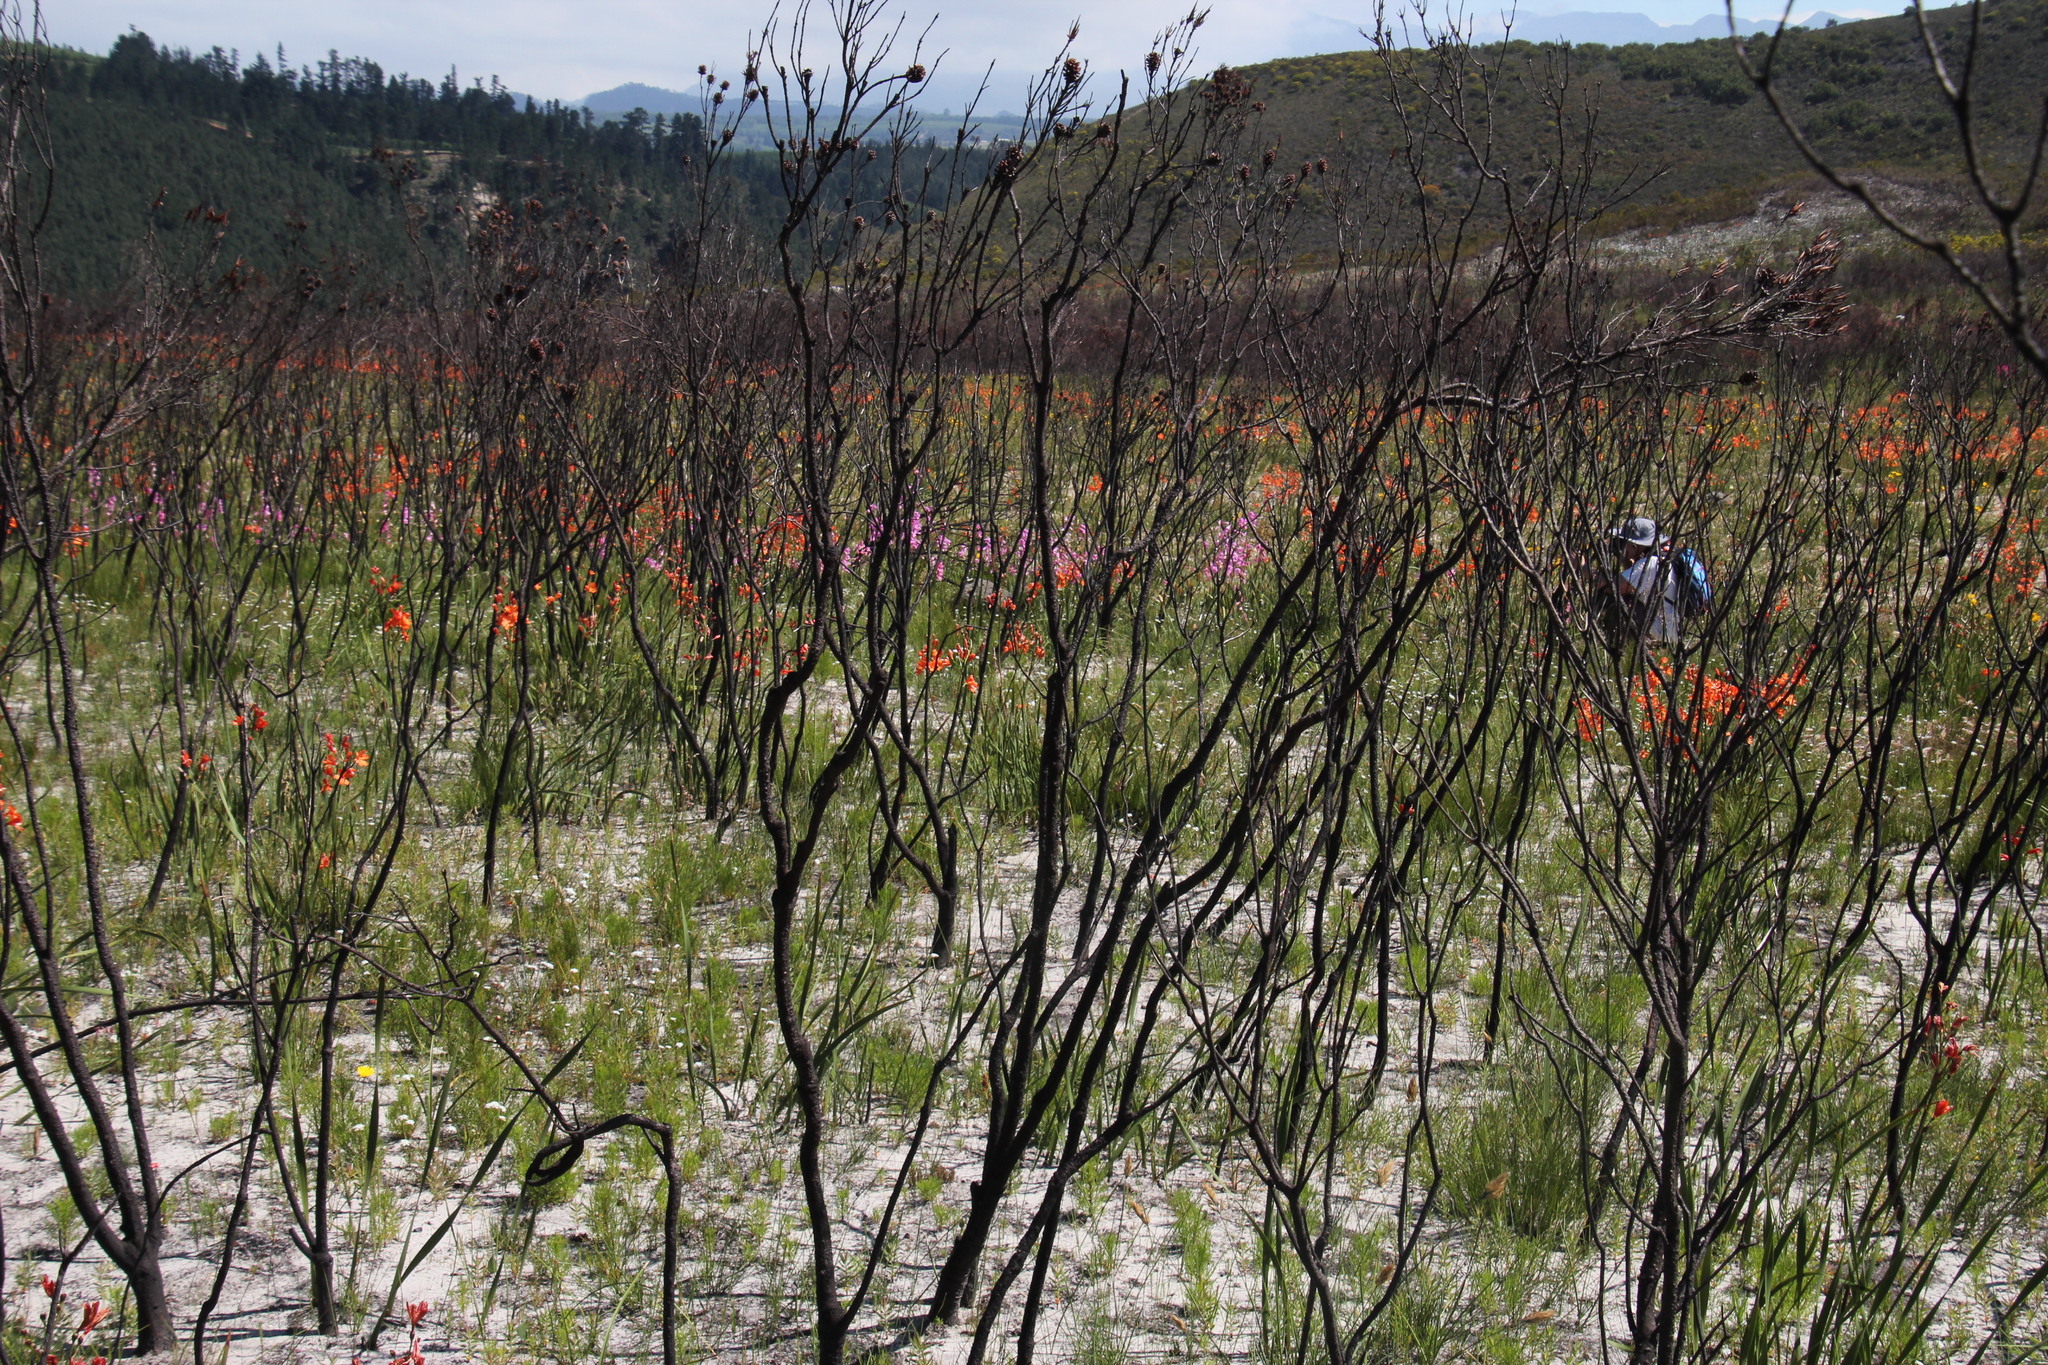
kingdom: Plantae
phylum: Tracheophyta
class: Liliopsida
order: Asparagales
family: Iridaceae
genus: Pillansia
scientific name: Pillansia templemannii
